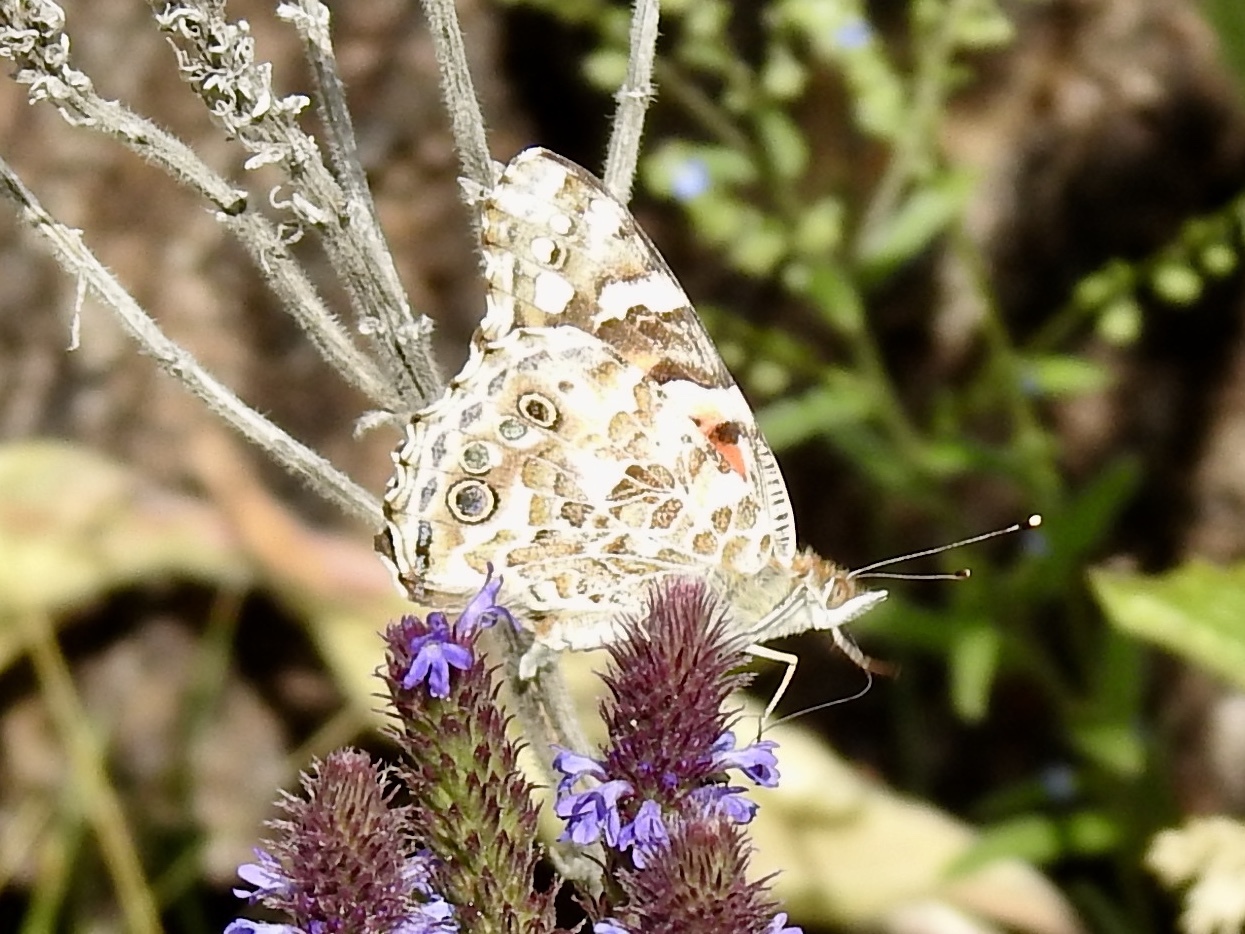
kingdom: Animalia
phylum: Arthropoda
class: Insecta
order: Lepidoptera
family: Nymphalidae
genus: Vanessa
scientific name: Vanessa cardui
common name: Painted lady
